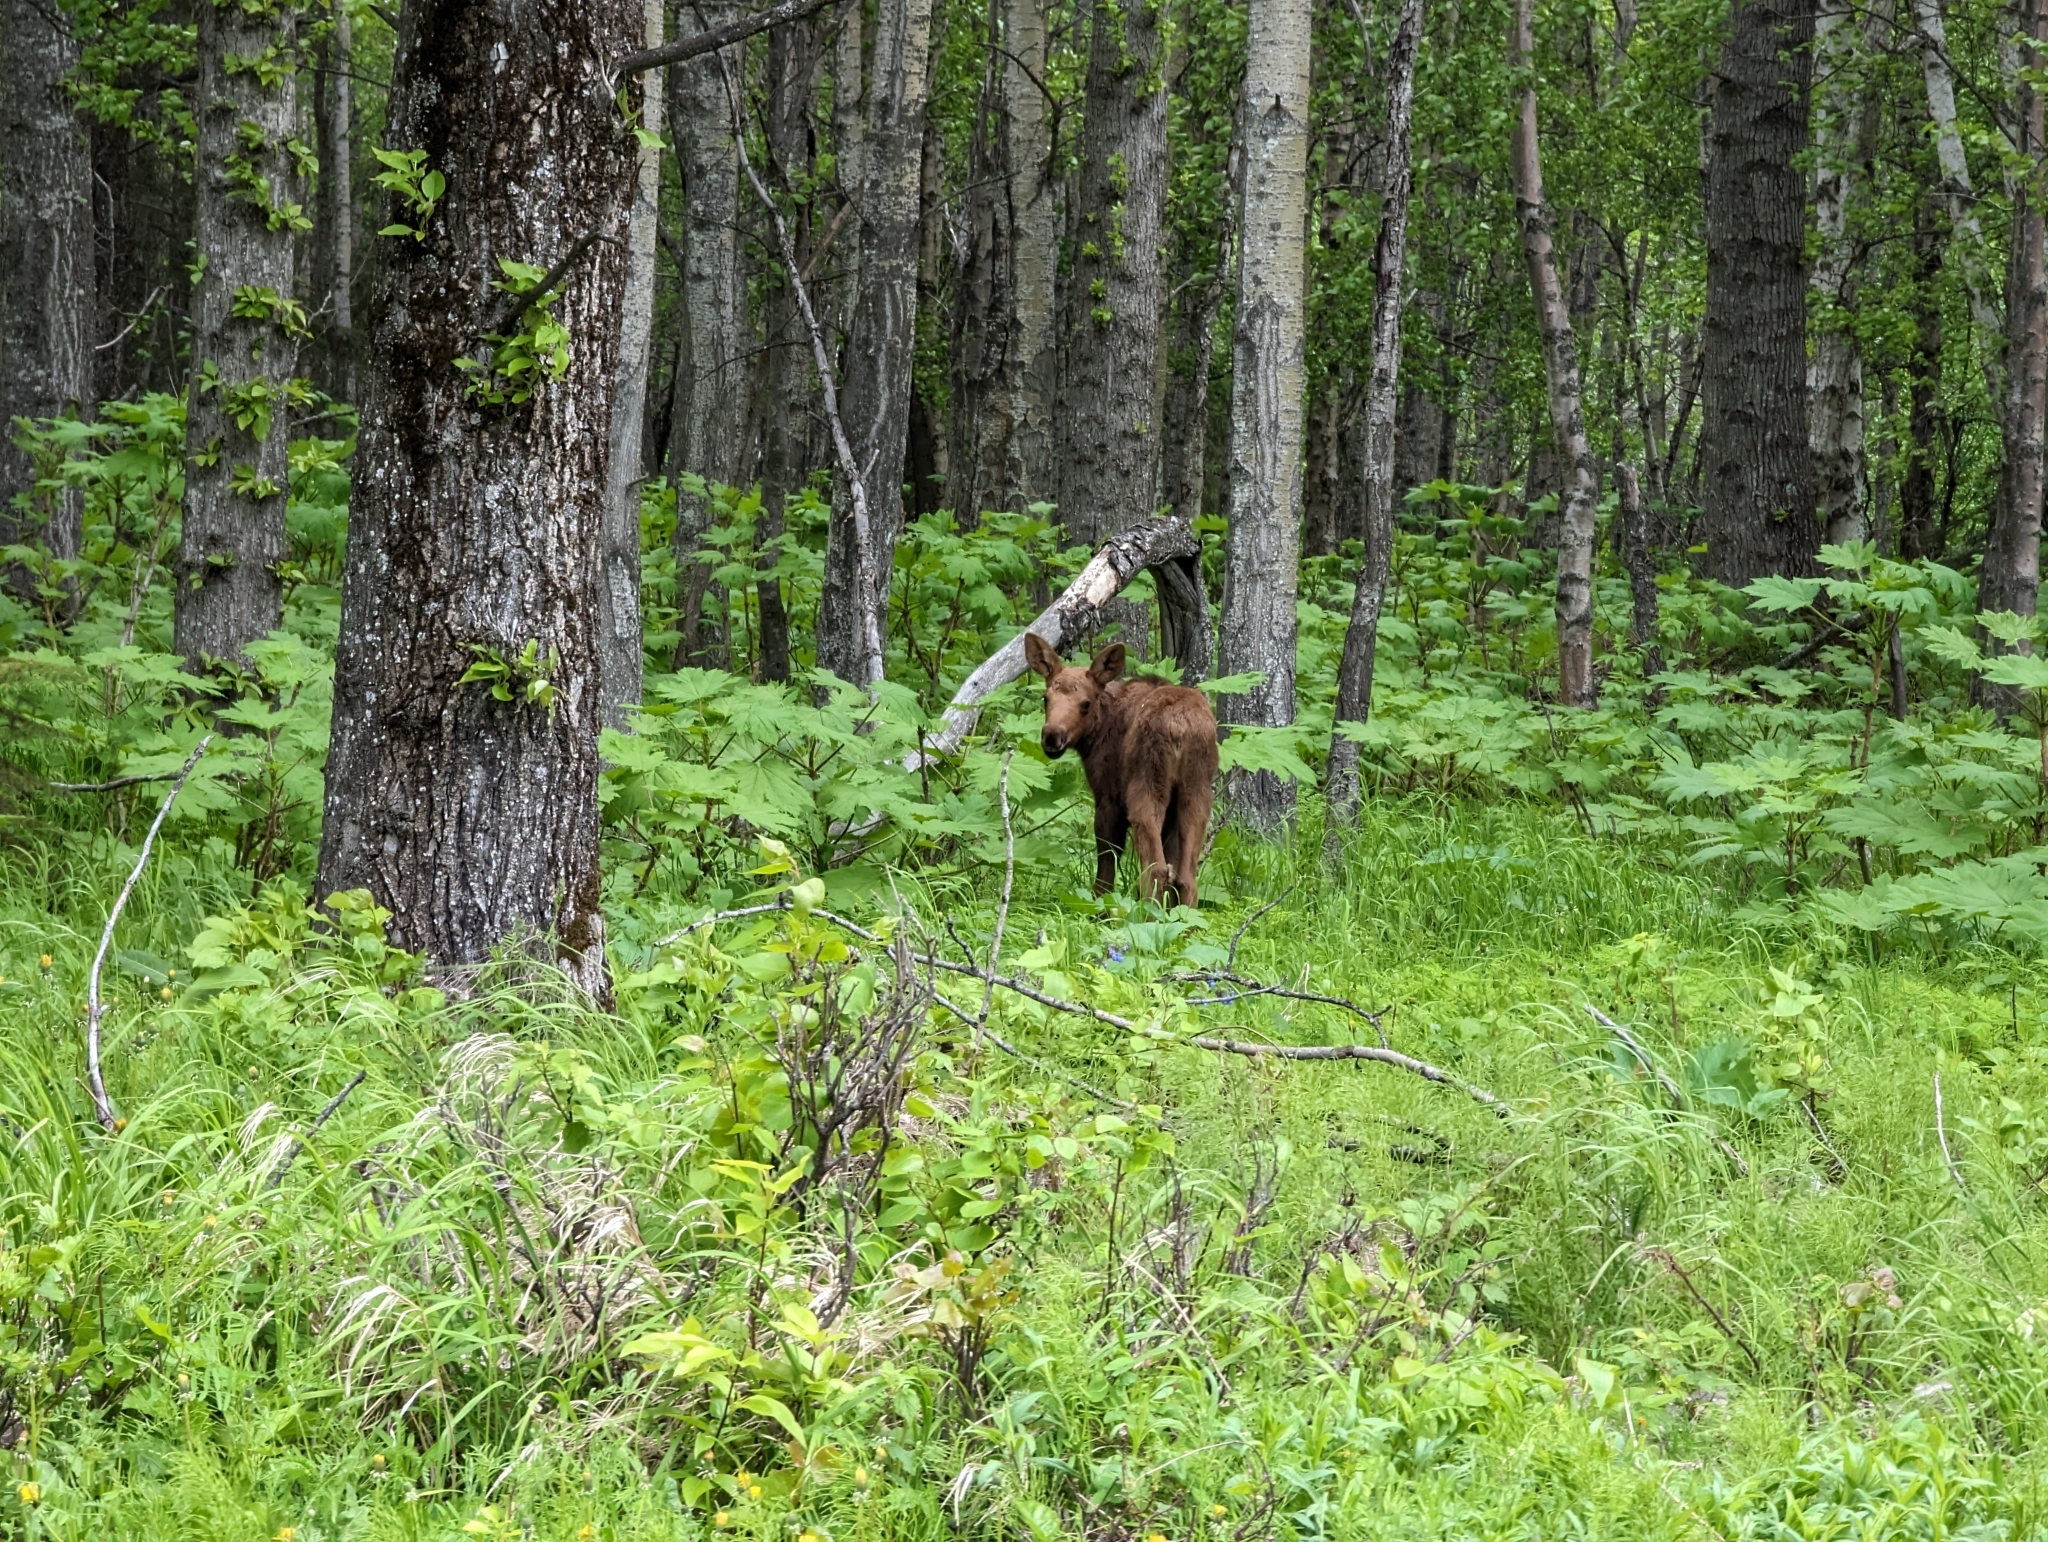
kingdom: Animalia
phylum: Chordata
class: Mammalia
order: Artiodactyla
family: Cervidae
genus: Alces
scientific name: Alces alces
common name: Moose
